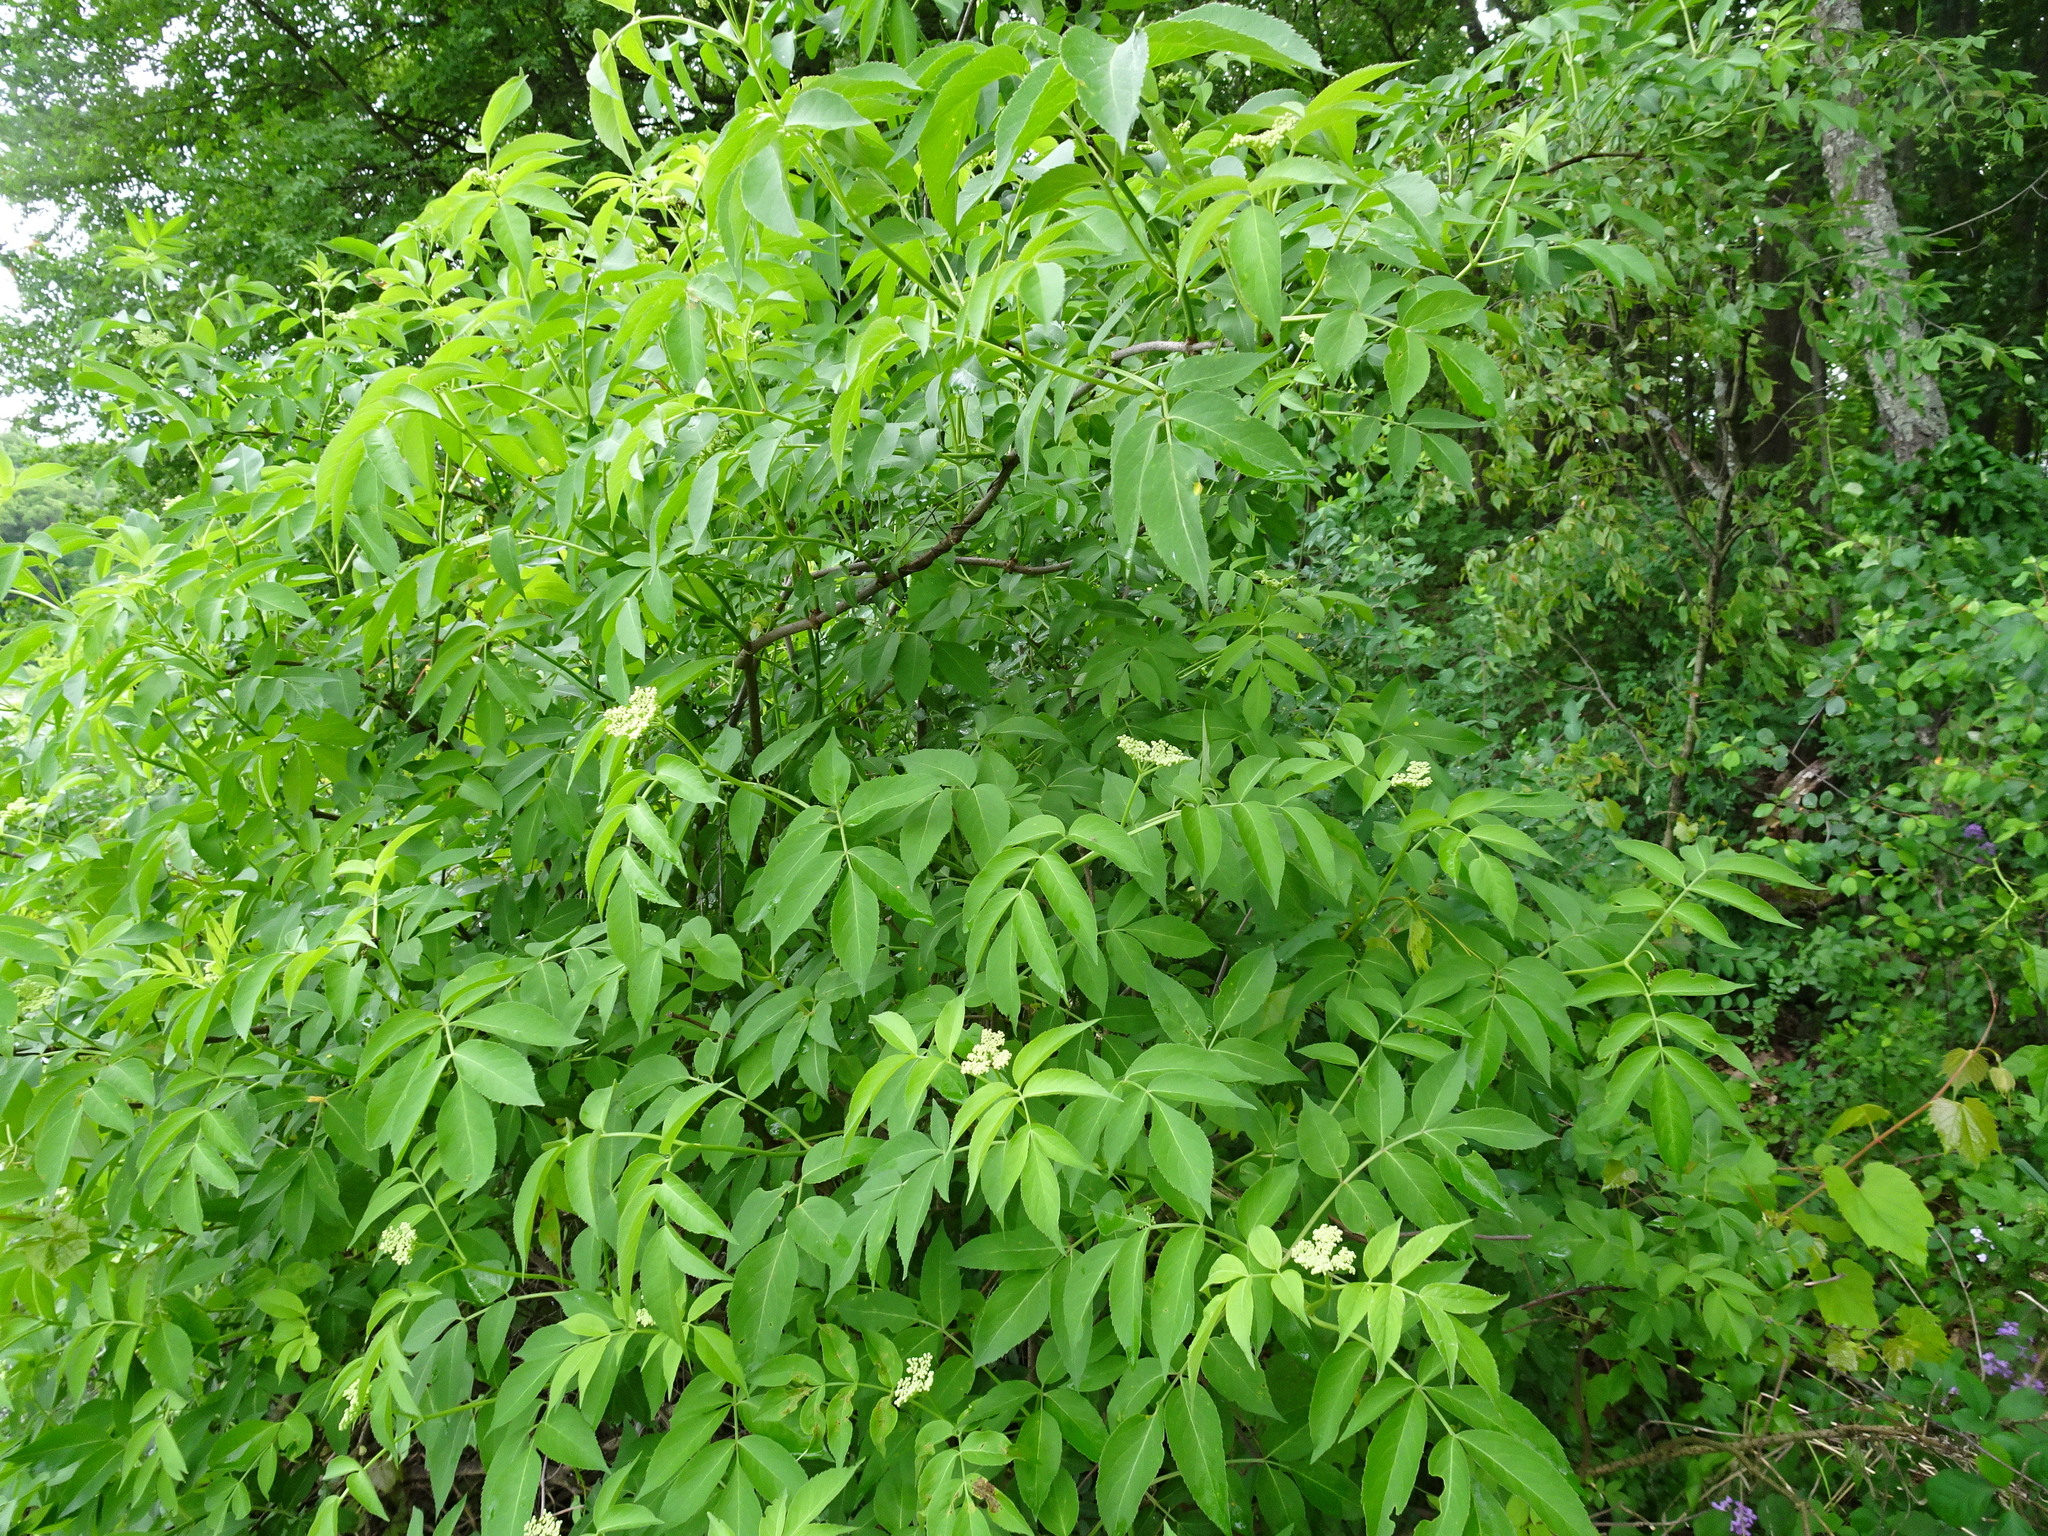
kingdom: Plantae
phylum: Tracheophyta
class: Magnoliopsida
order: Dipsacales
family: Viburnaceae
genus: Sambucus
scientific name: Sambucus canadensis
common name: American elder
